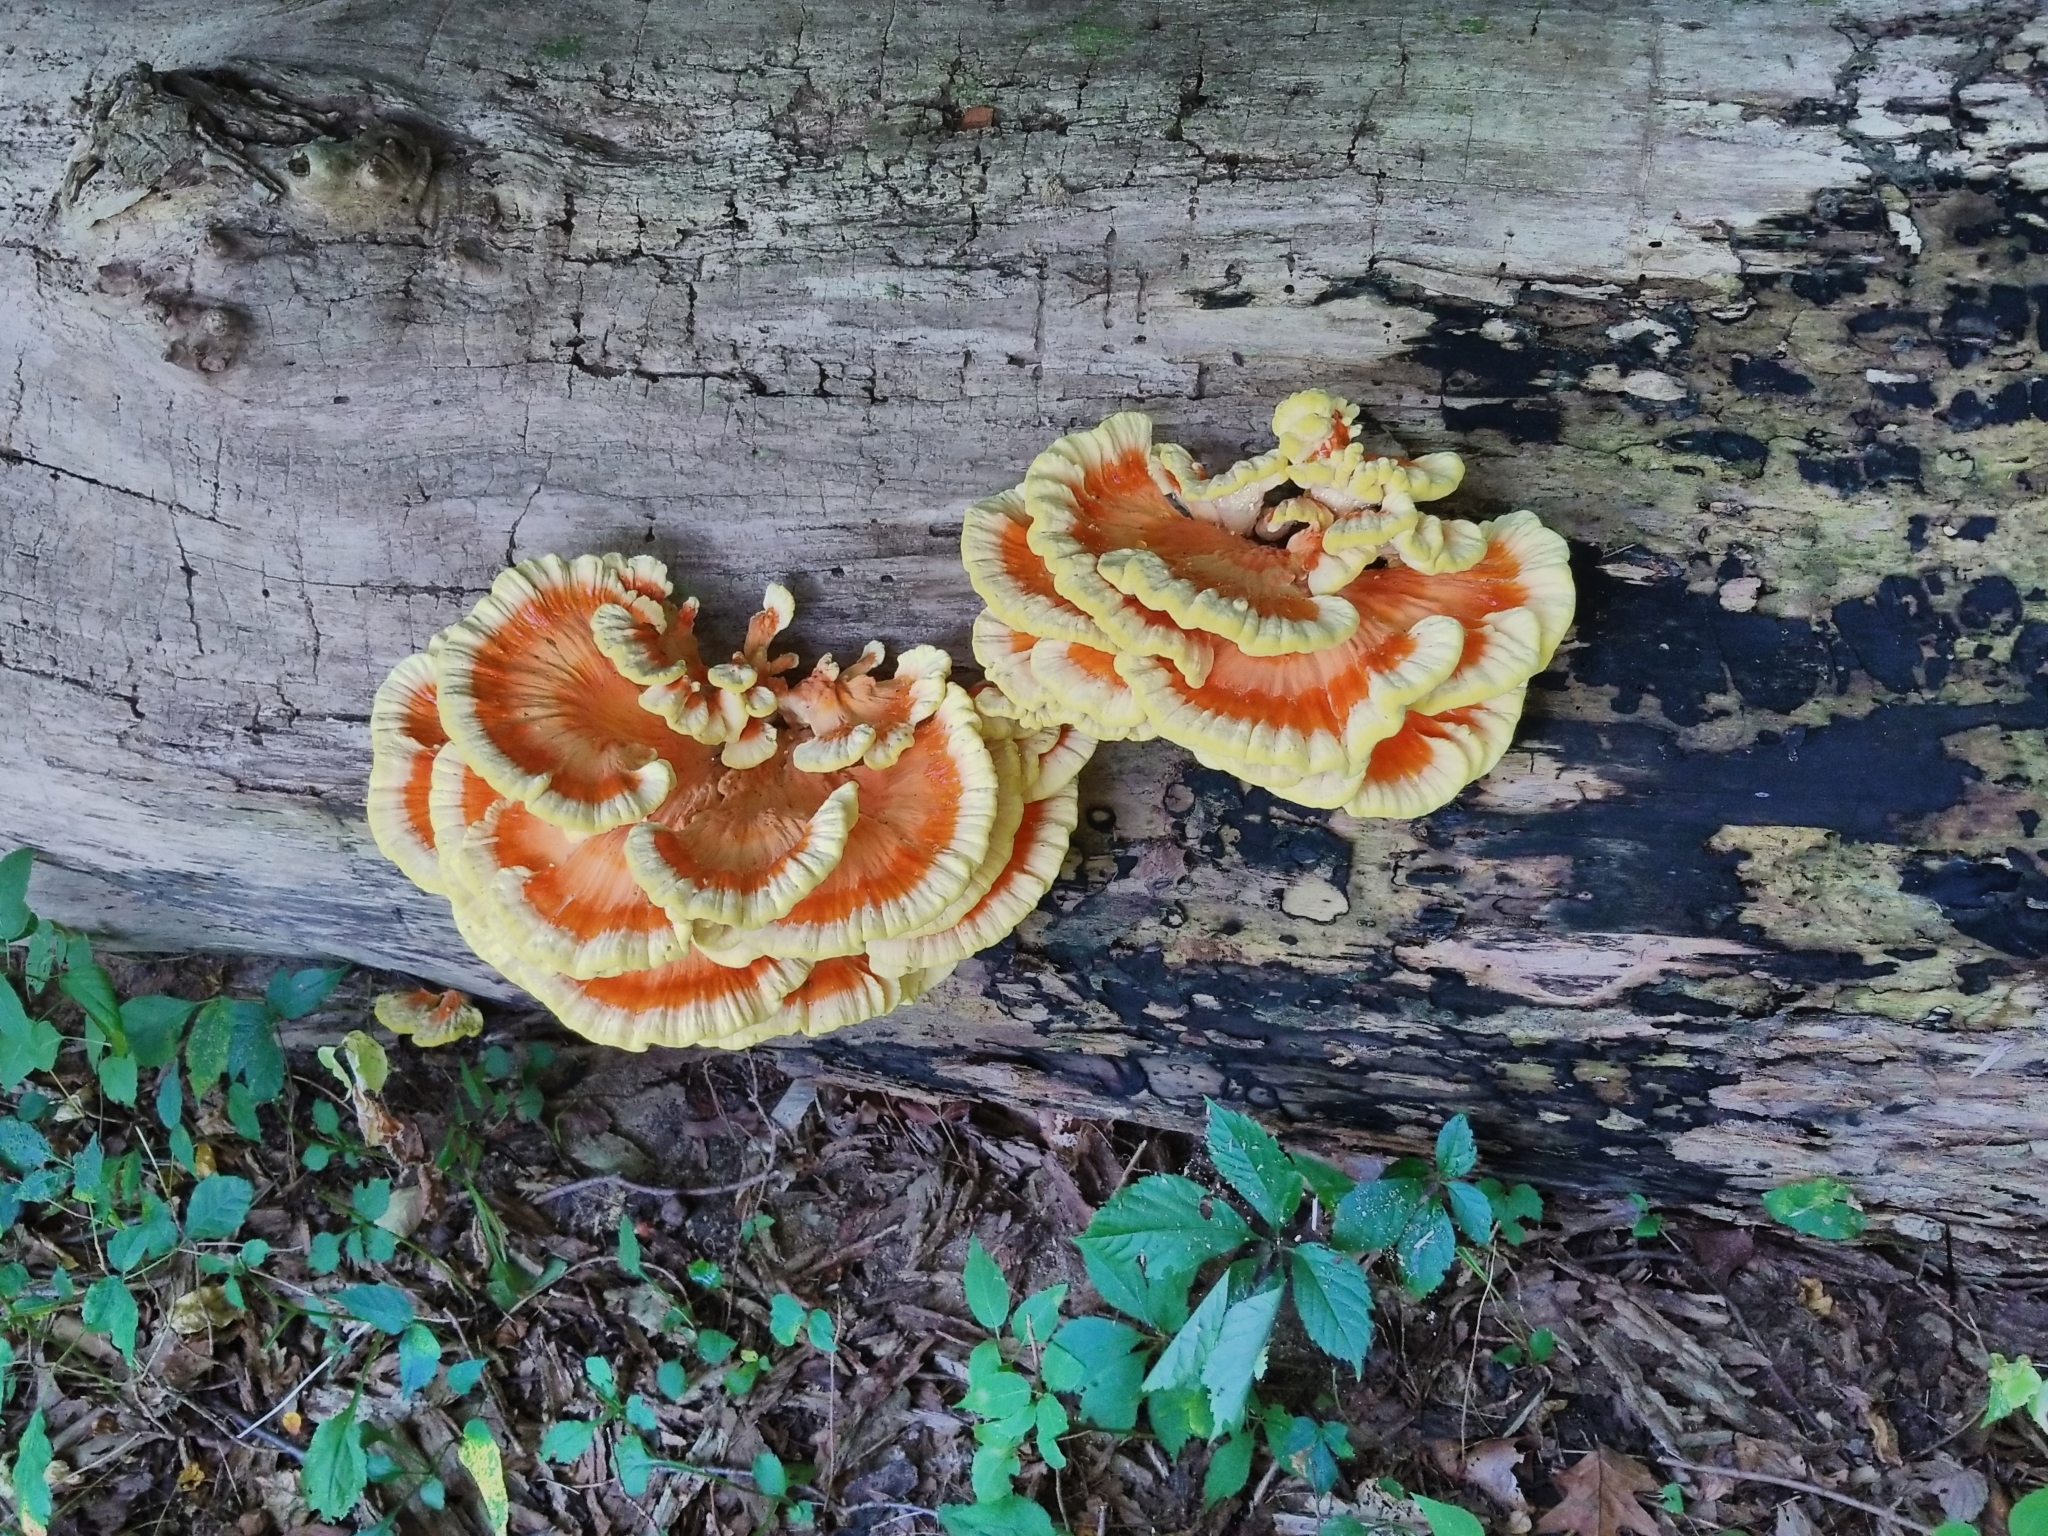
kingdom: Fungi
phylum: Basidiomycota
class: Agaricomycetes
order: Polyporales
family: Laetiporaceae
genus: Laetiporus
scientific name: Laetiporus sulphureus
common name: Chicken of the woods
